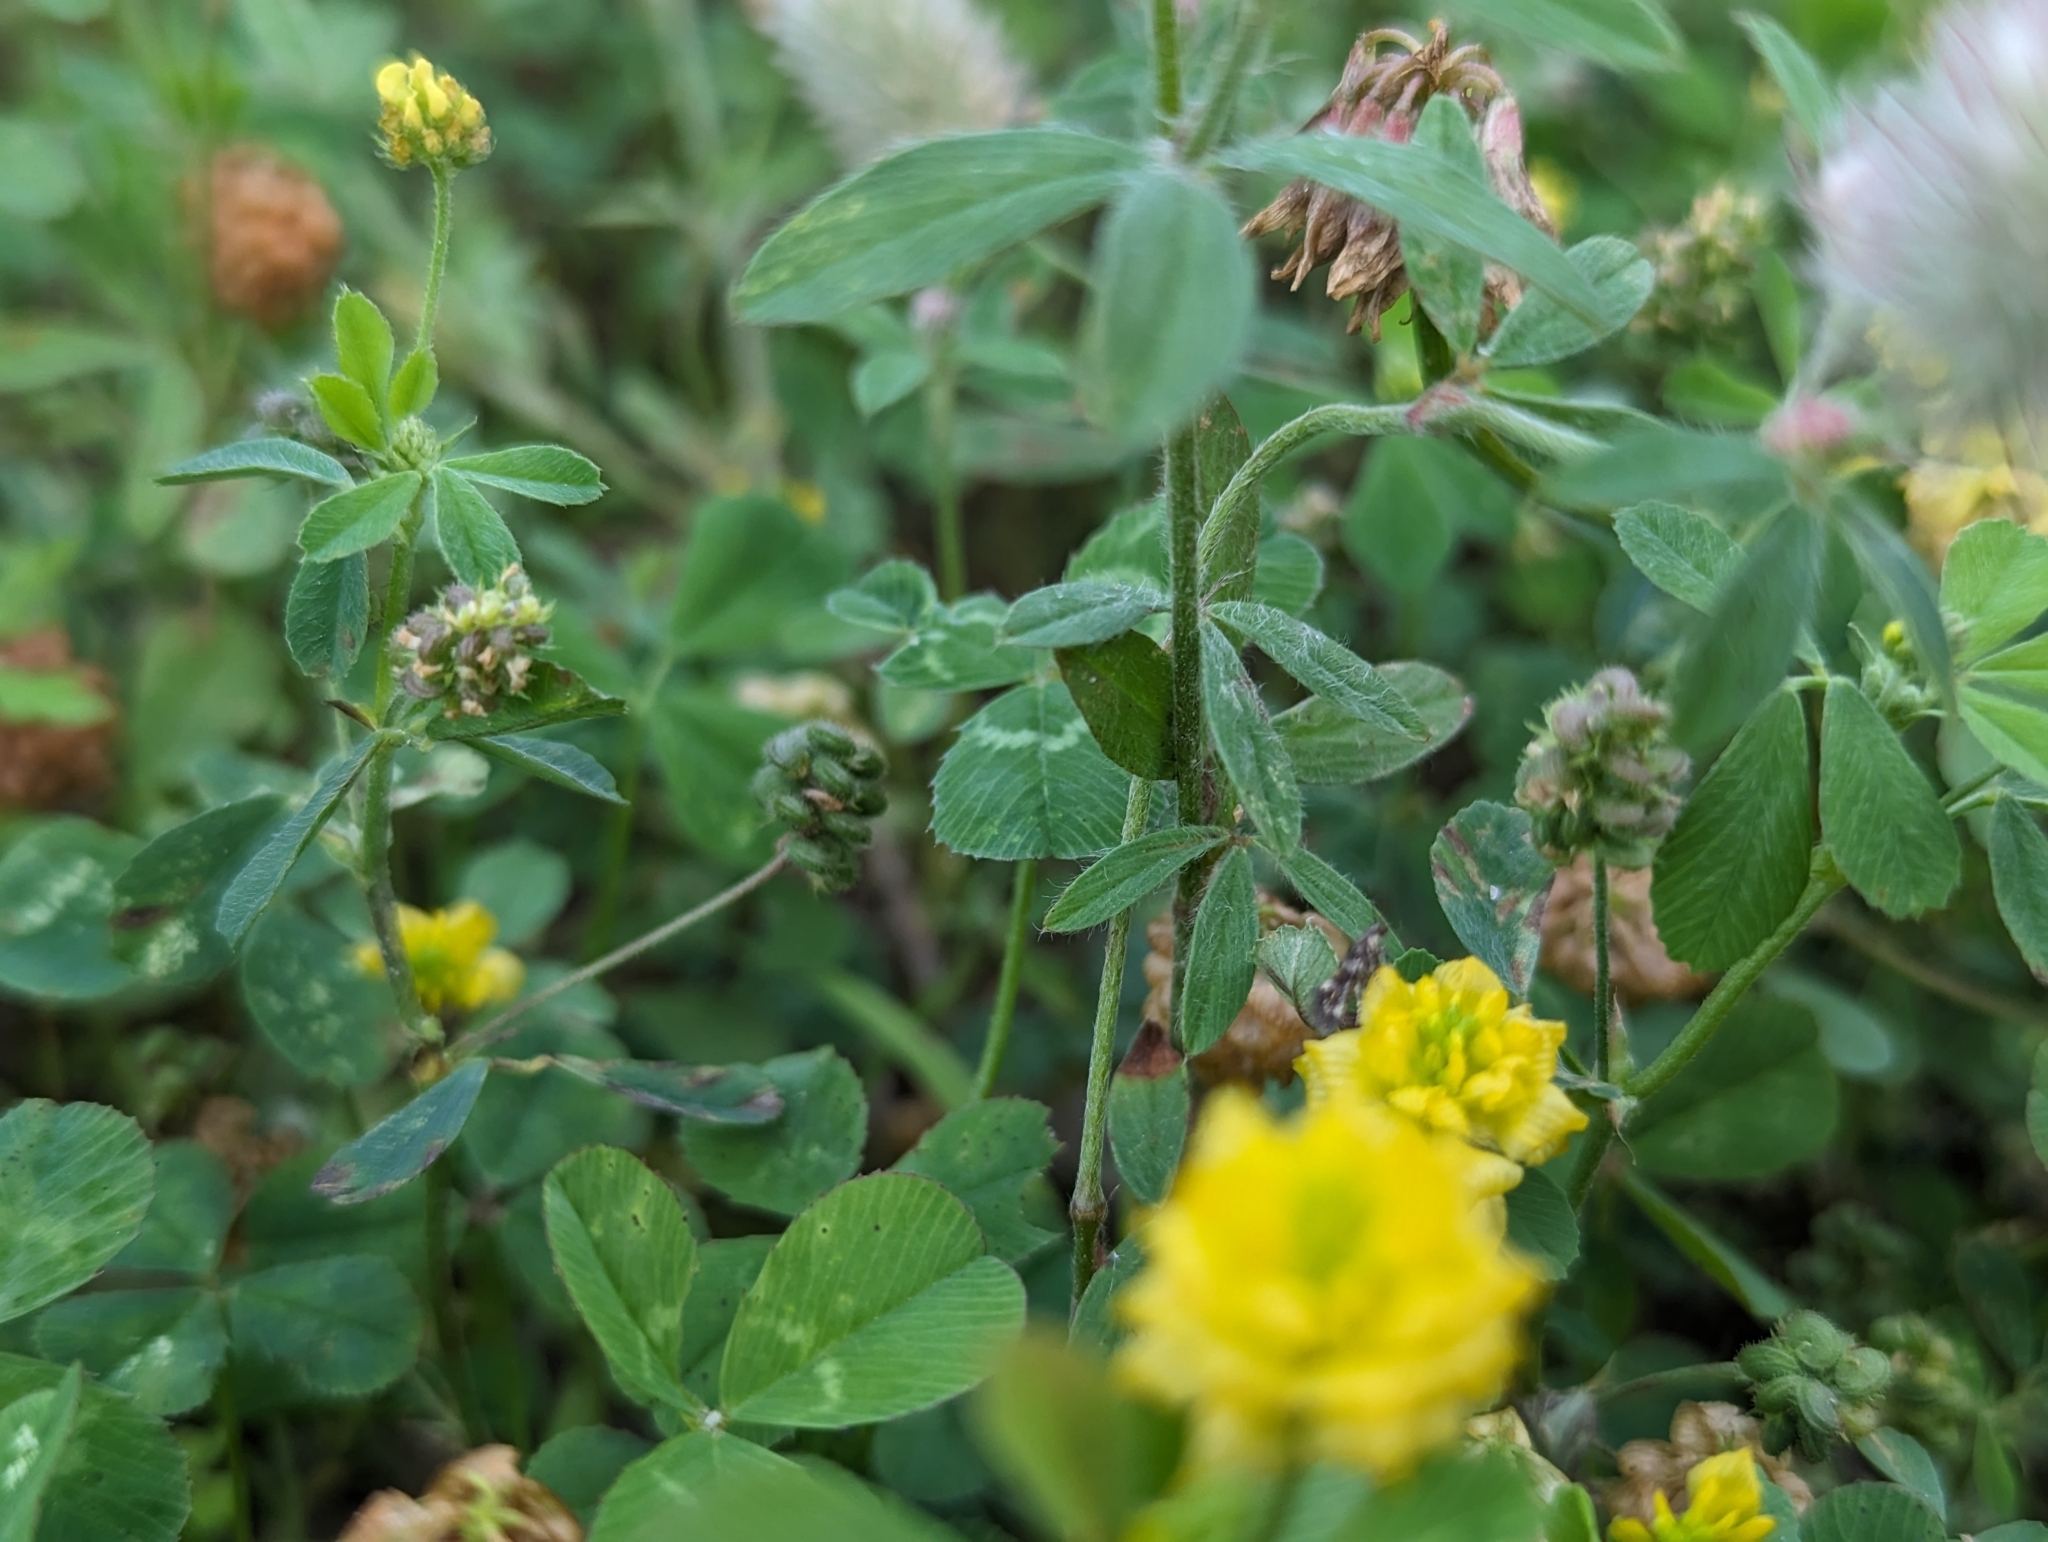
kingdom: Plantae
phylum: Tracheophyta
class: Magnoliopsida
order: Fabales
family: Fabaceae
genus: Trifolium
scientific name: Trifolium arvense
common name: Hare's-foot clover
